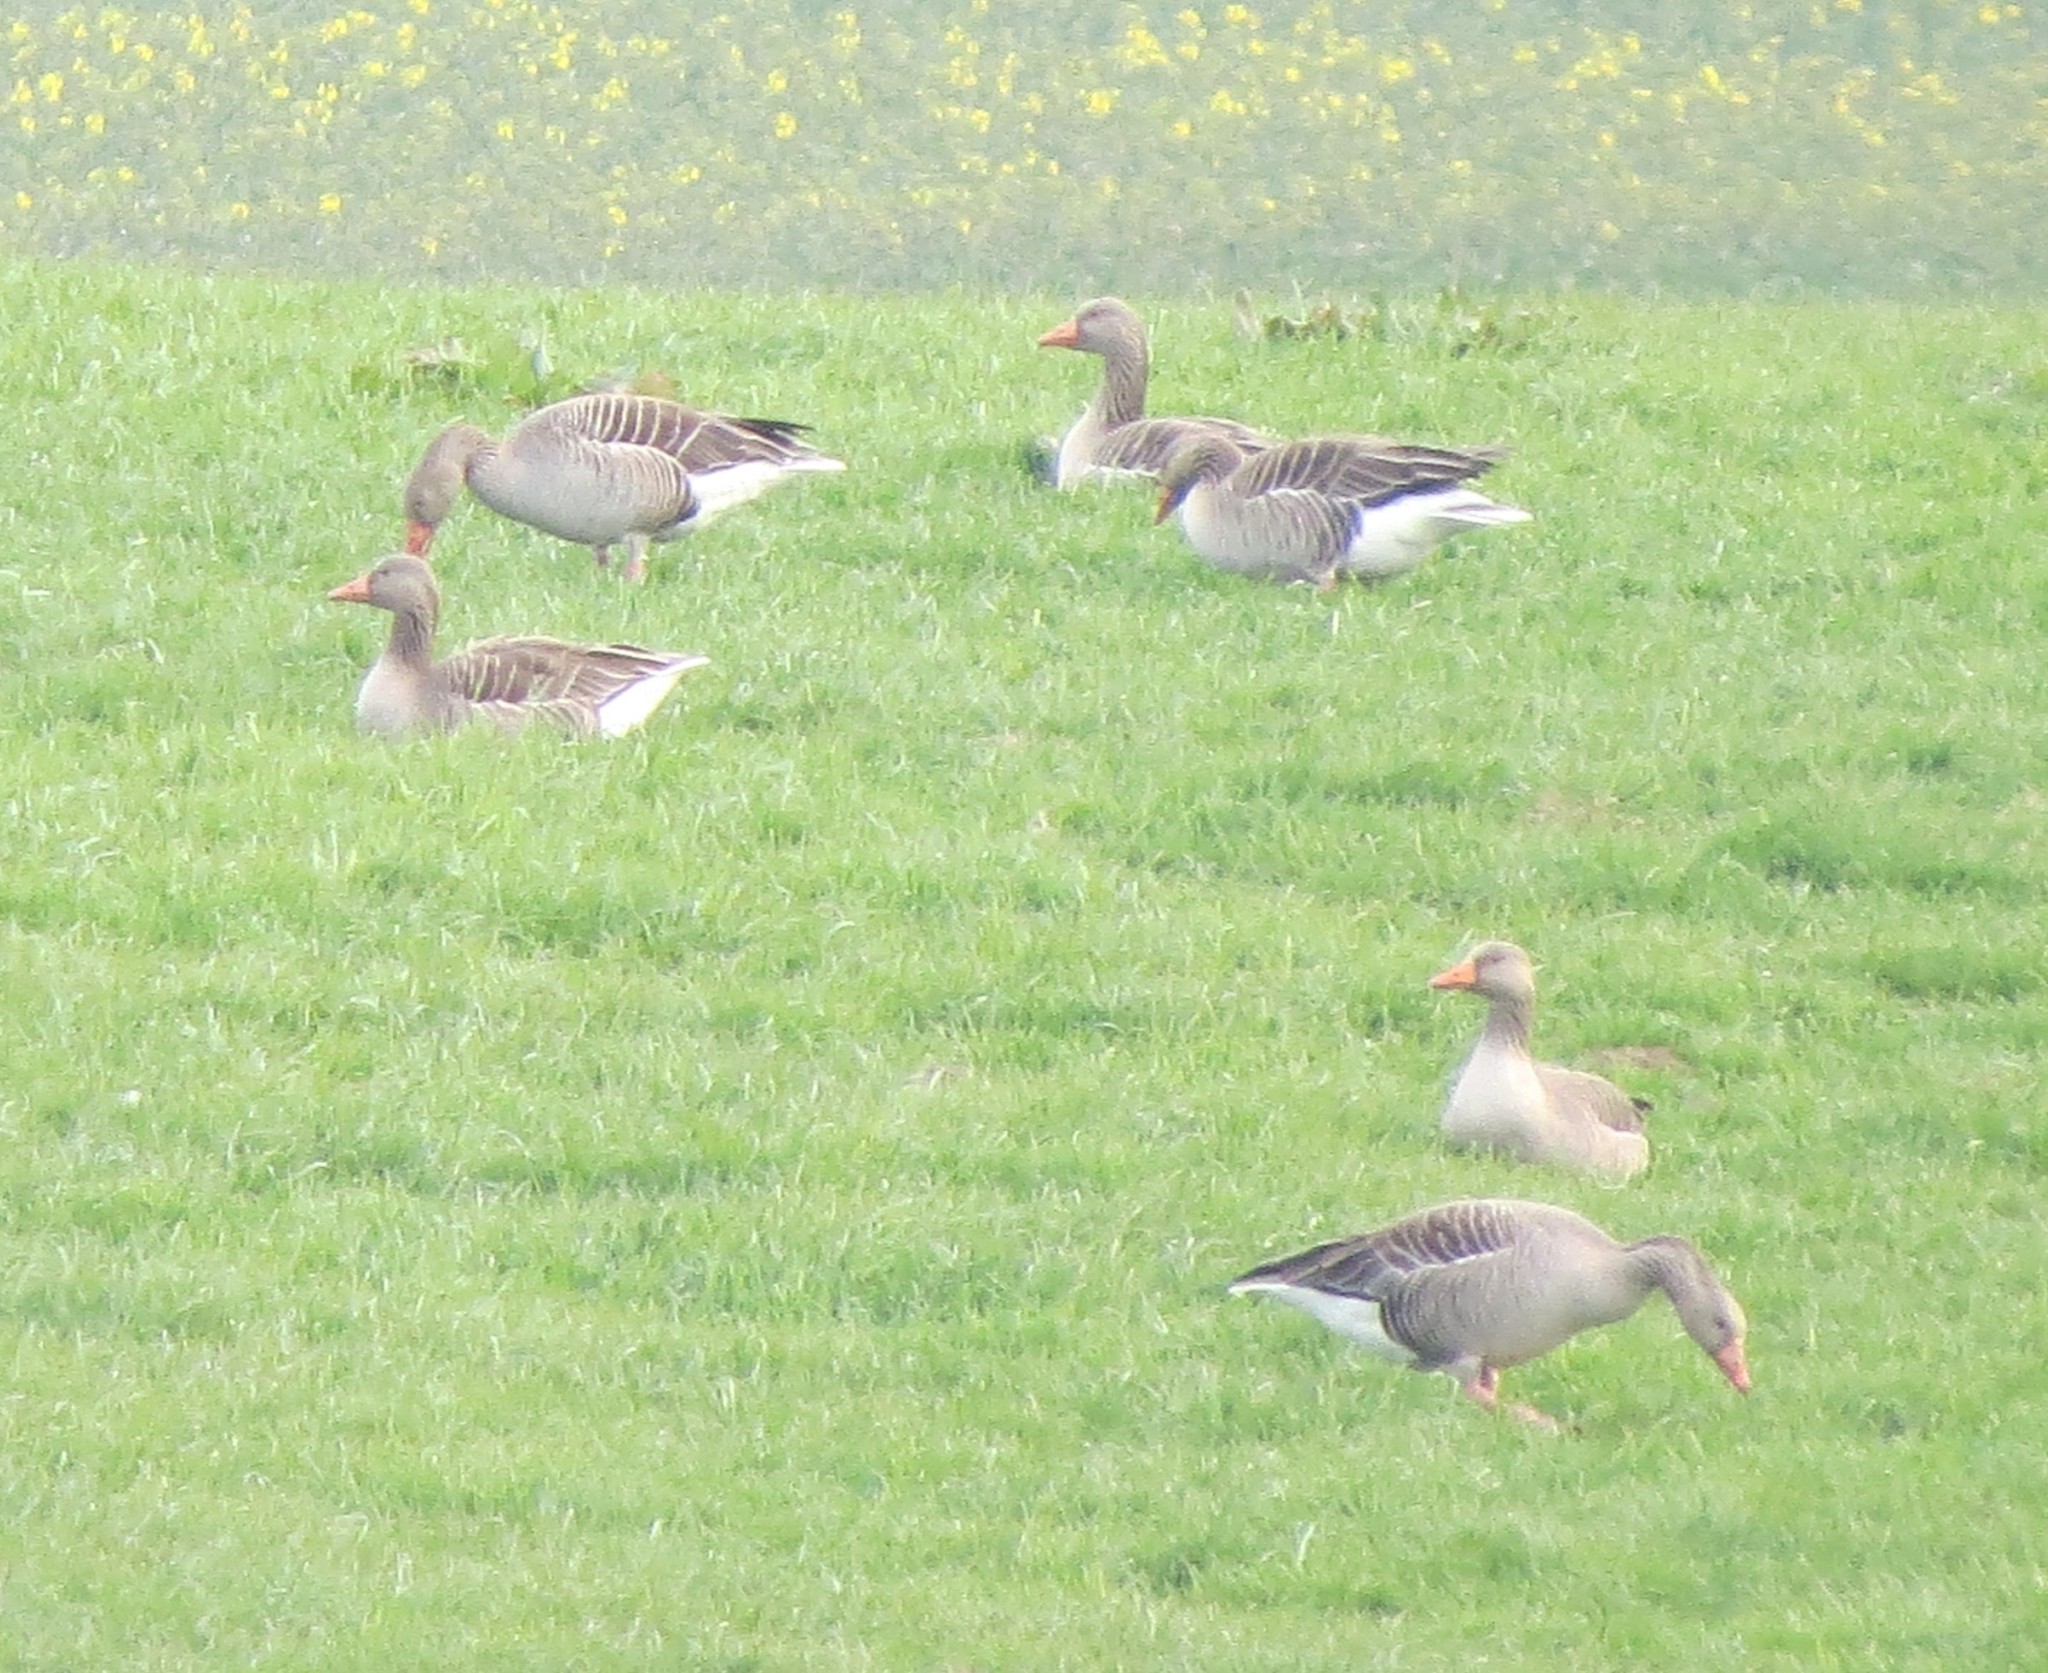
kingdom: Animalia
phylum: Chordata
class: Aves
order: Anseriformes
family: Anatidae
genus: Anser
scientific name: Anser anser
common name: Greylag goose
